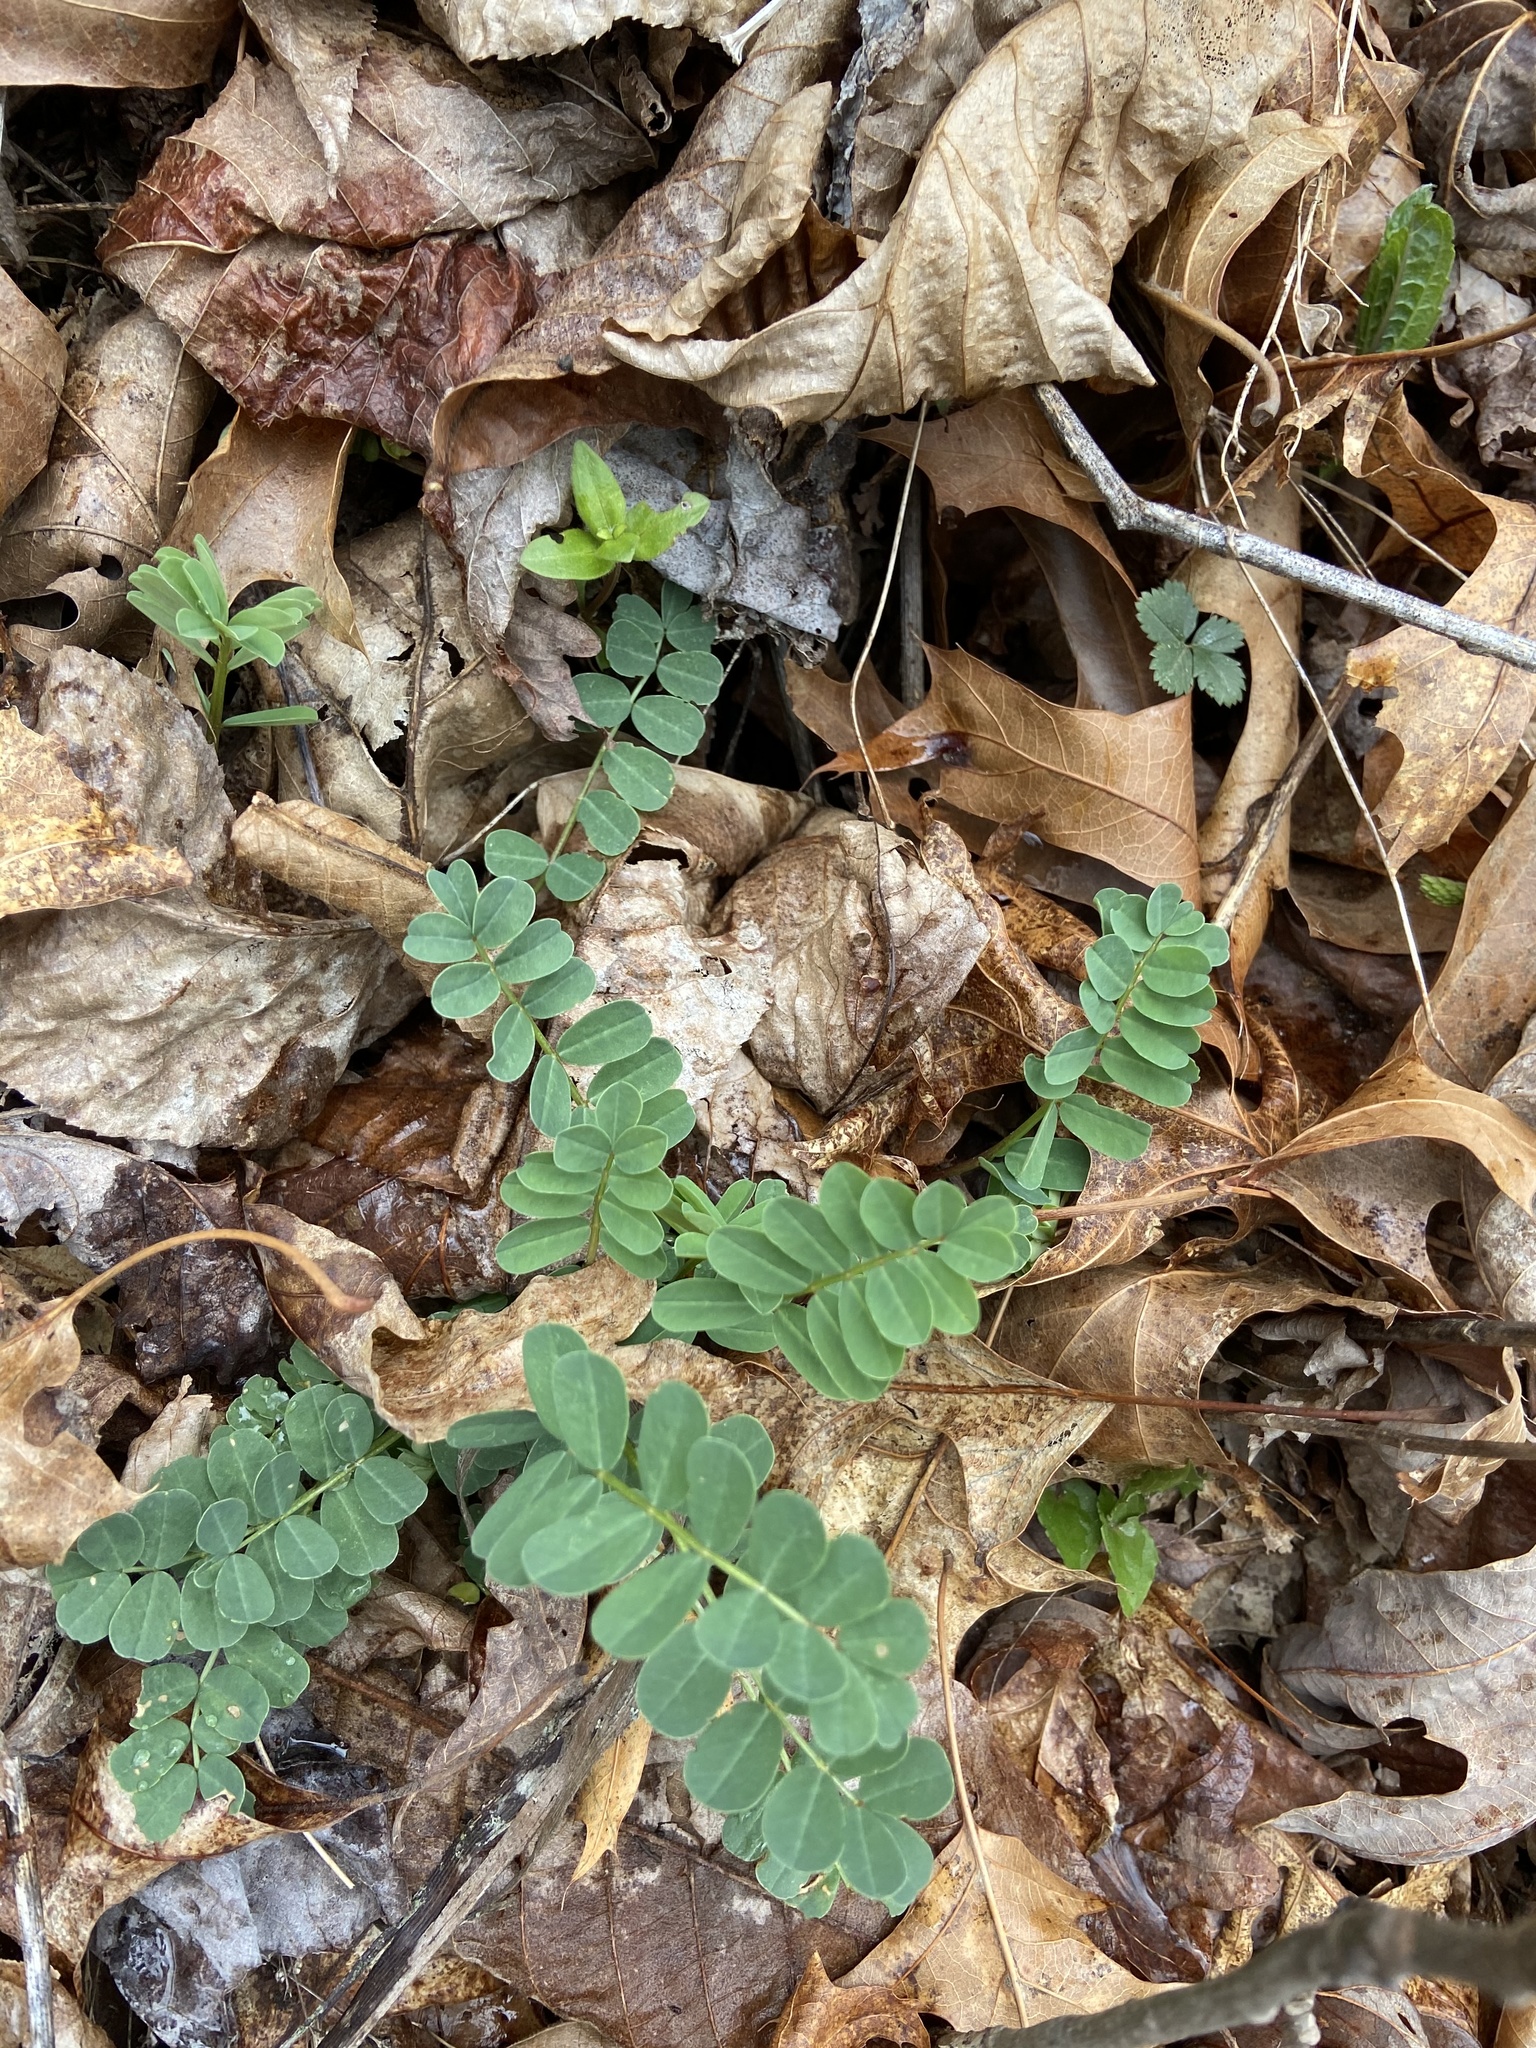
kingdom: Plantae
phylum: Tracheophyta
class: Magnoliopsida
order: Fabales
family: Fabaceae
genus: Coronilla
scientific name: Coronilla varia
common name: Crownvetch
